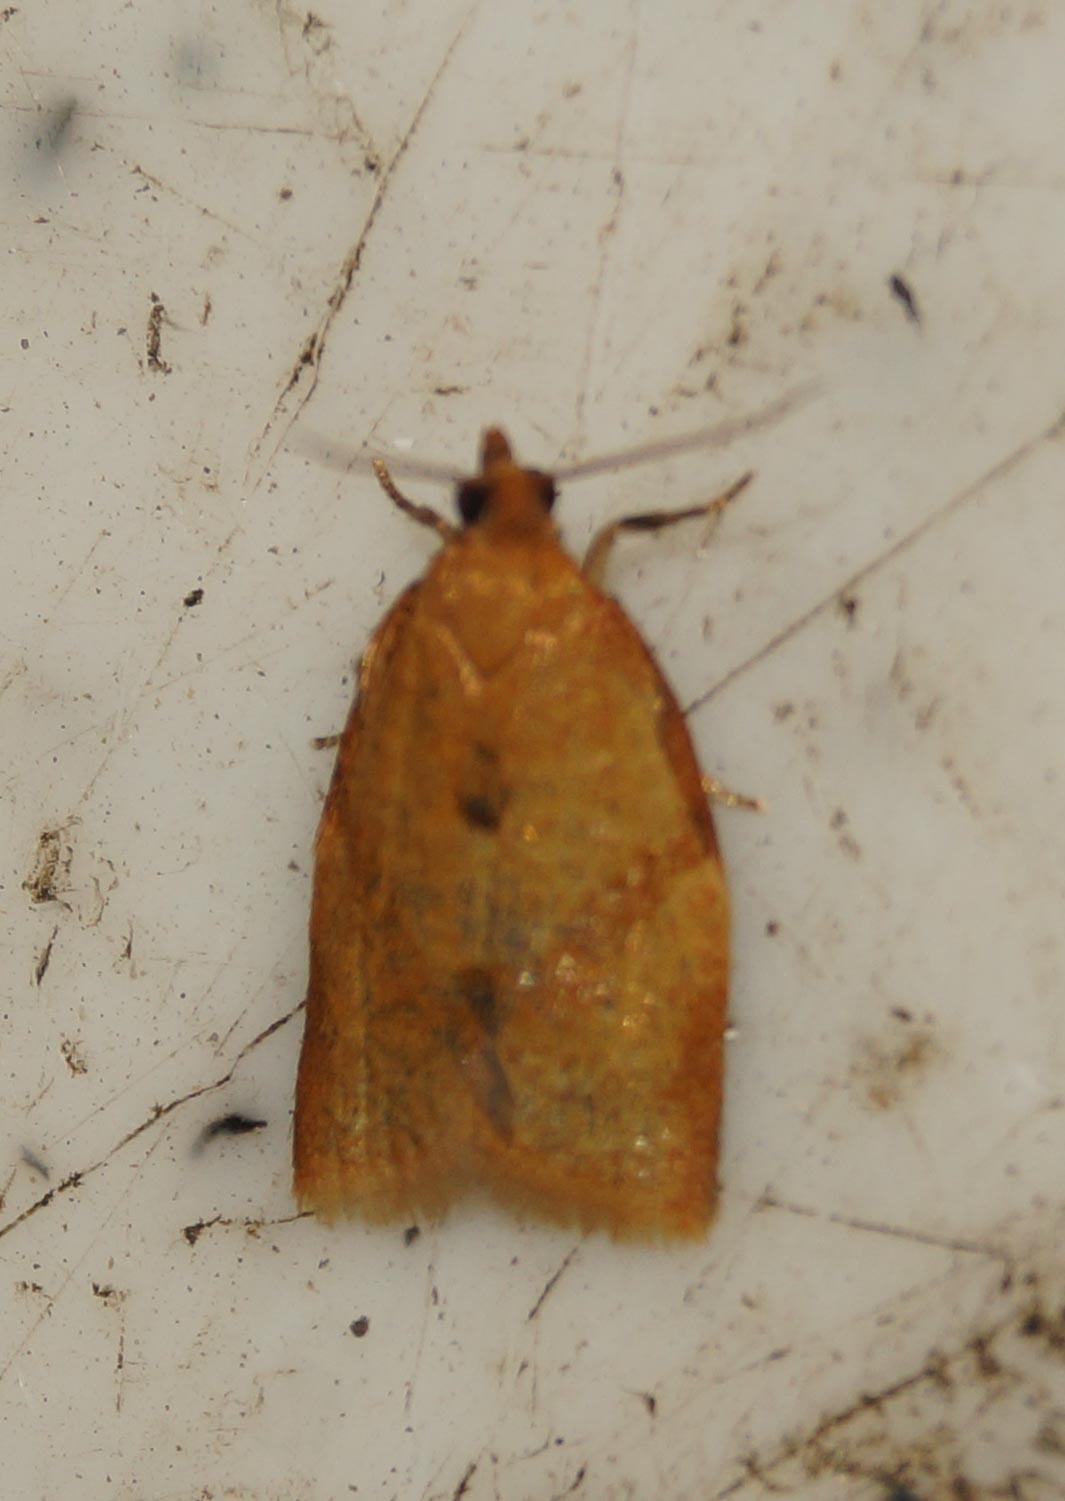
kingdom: Animalia
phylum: Arthropoda
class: Insecta
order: Lepidoptera
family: Tortricidae
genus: Clepsis
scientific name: Clepsis consimilana
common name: Privet tortrix
